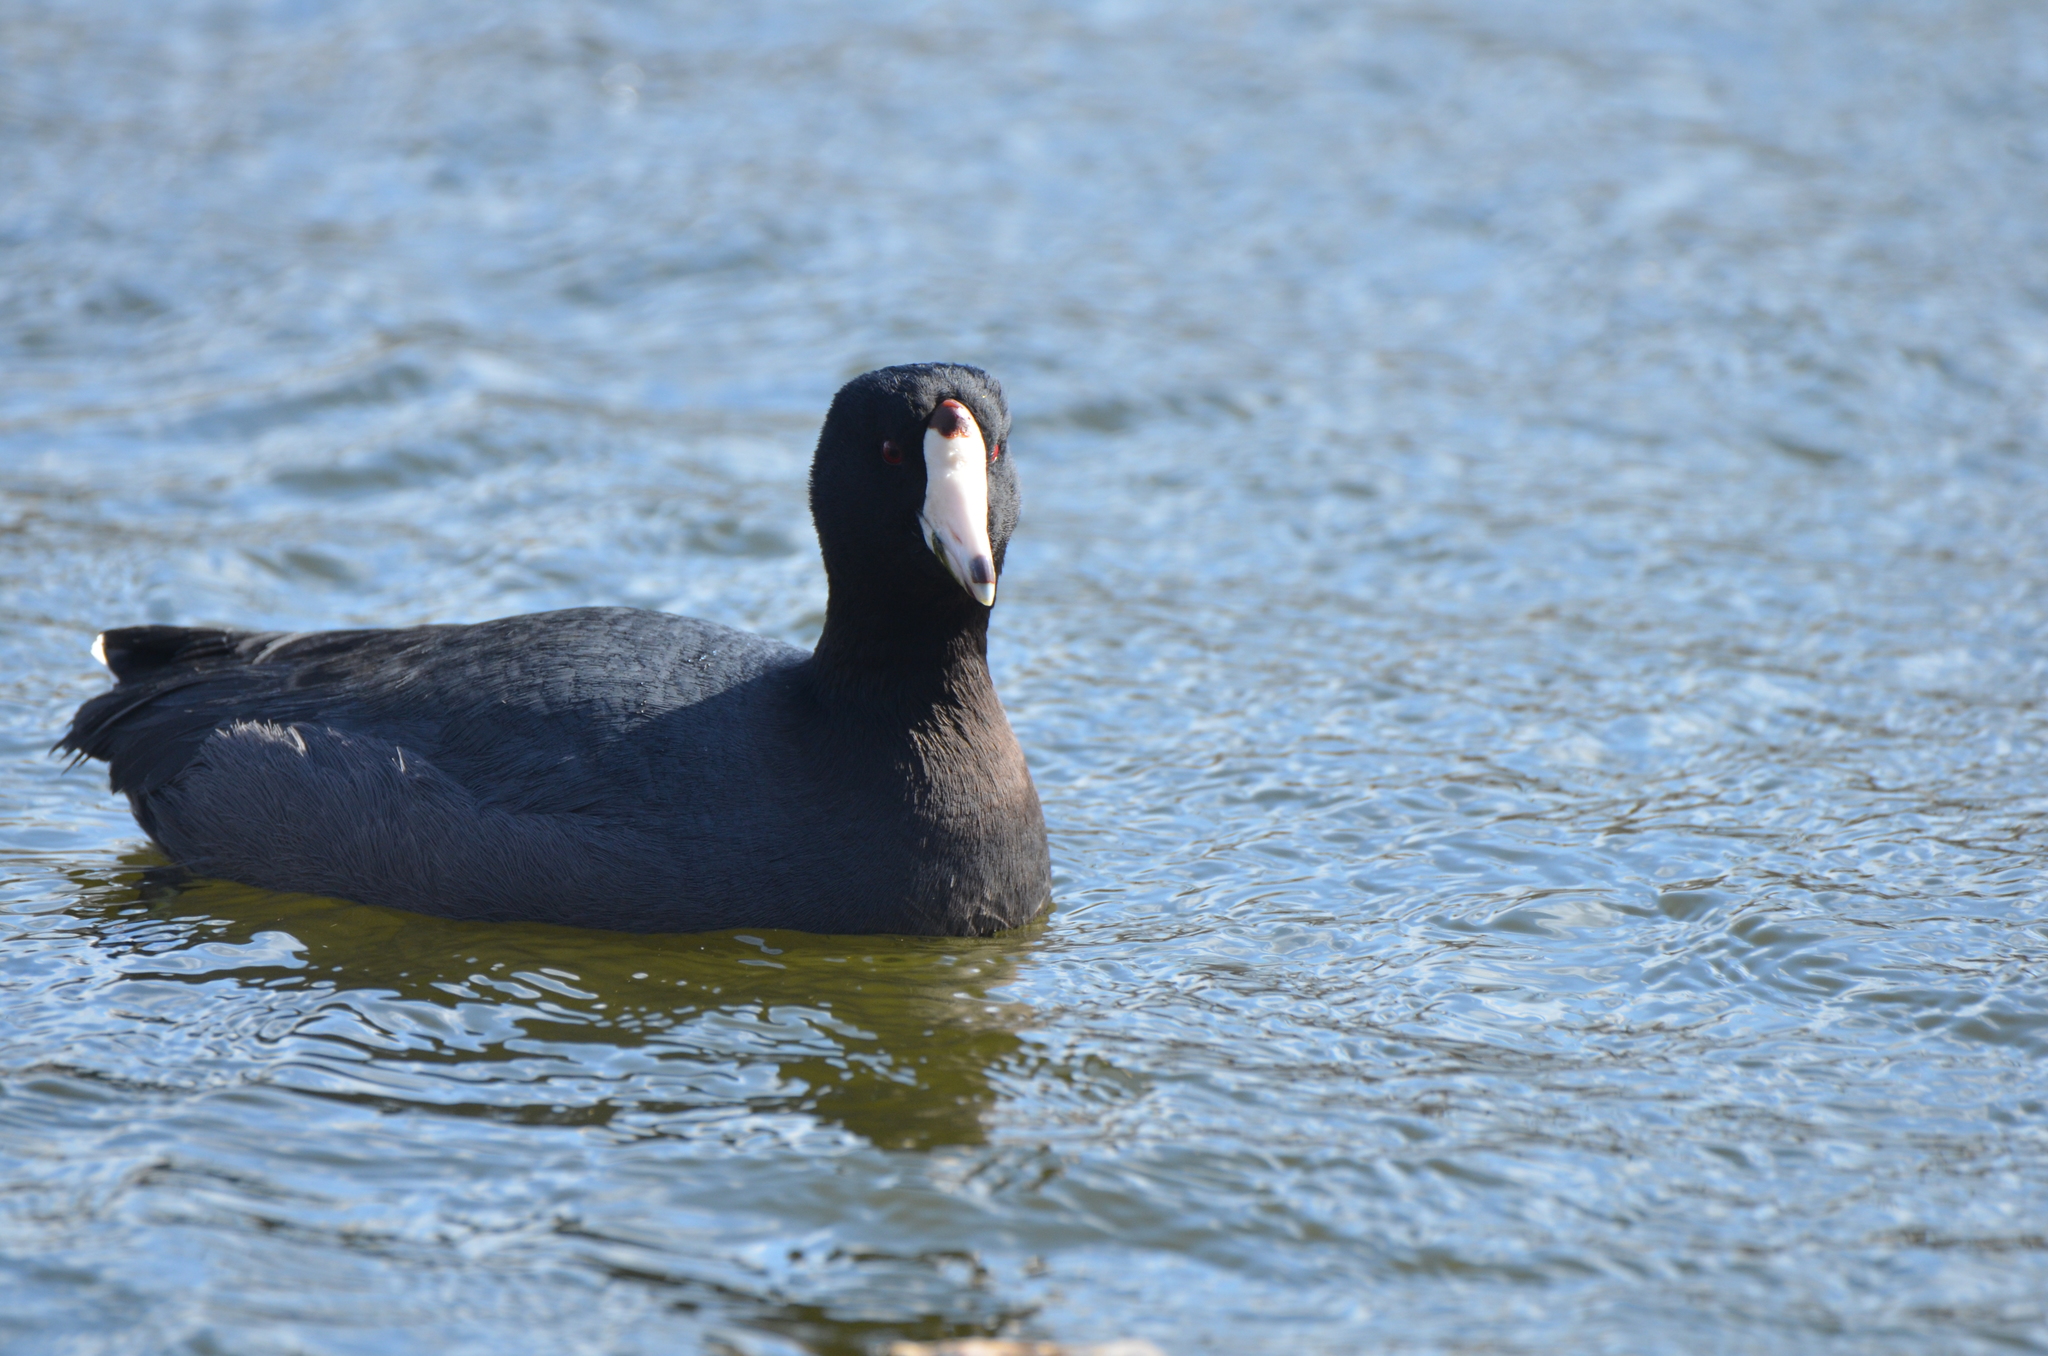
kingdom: Animalia
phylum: Chordata
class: Aves
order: Gruiformes
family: Rallidae
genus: Fulica
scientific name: Fulica americana
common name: American coot
